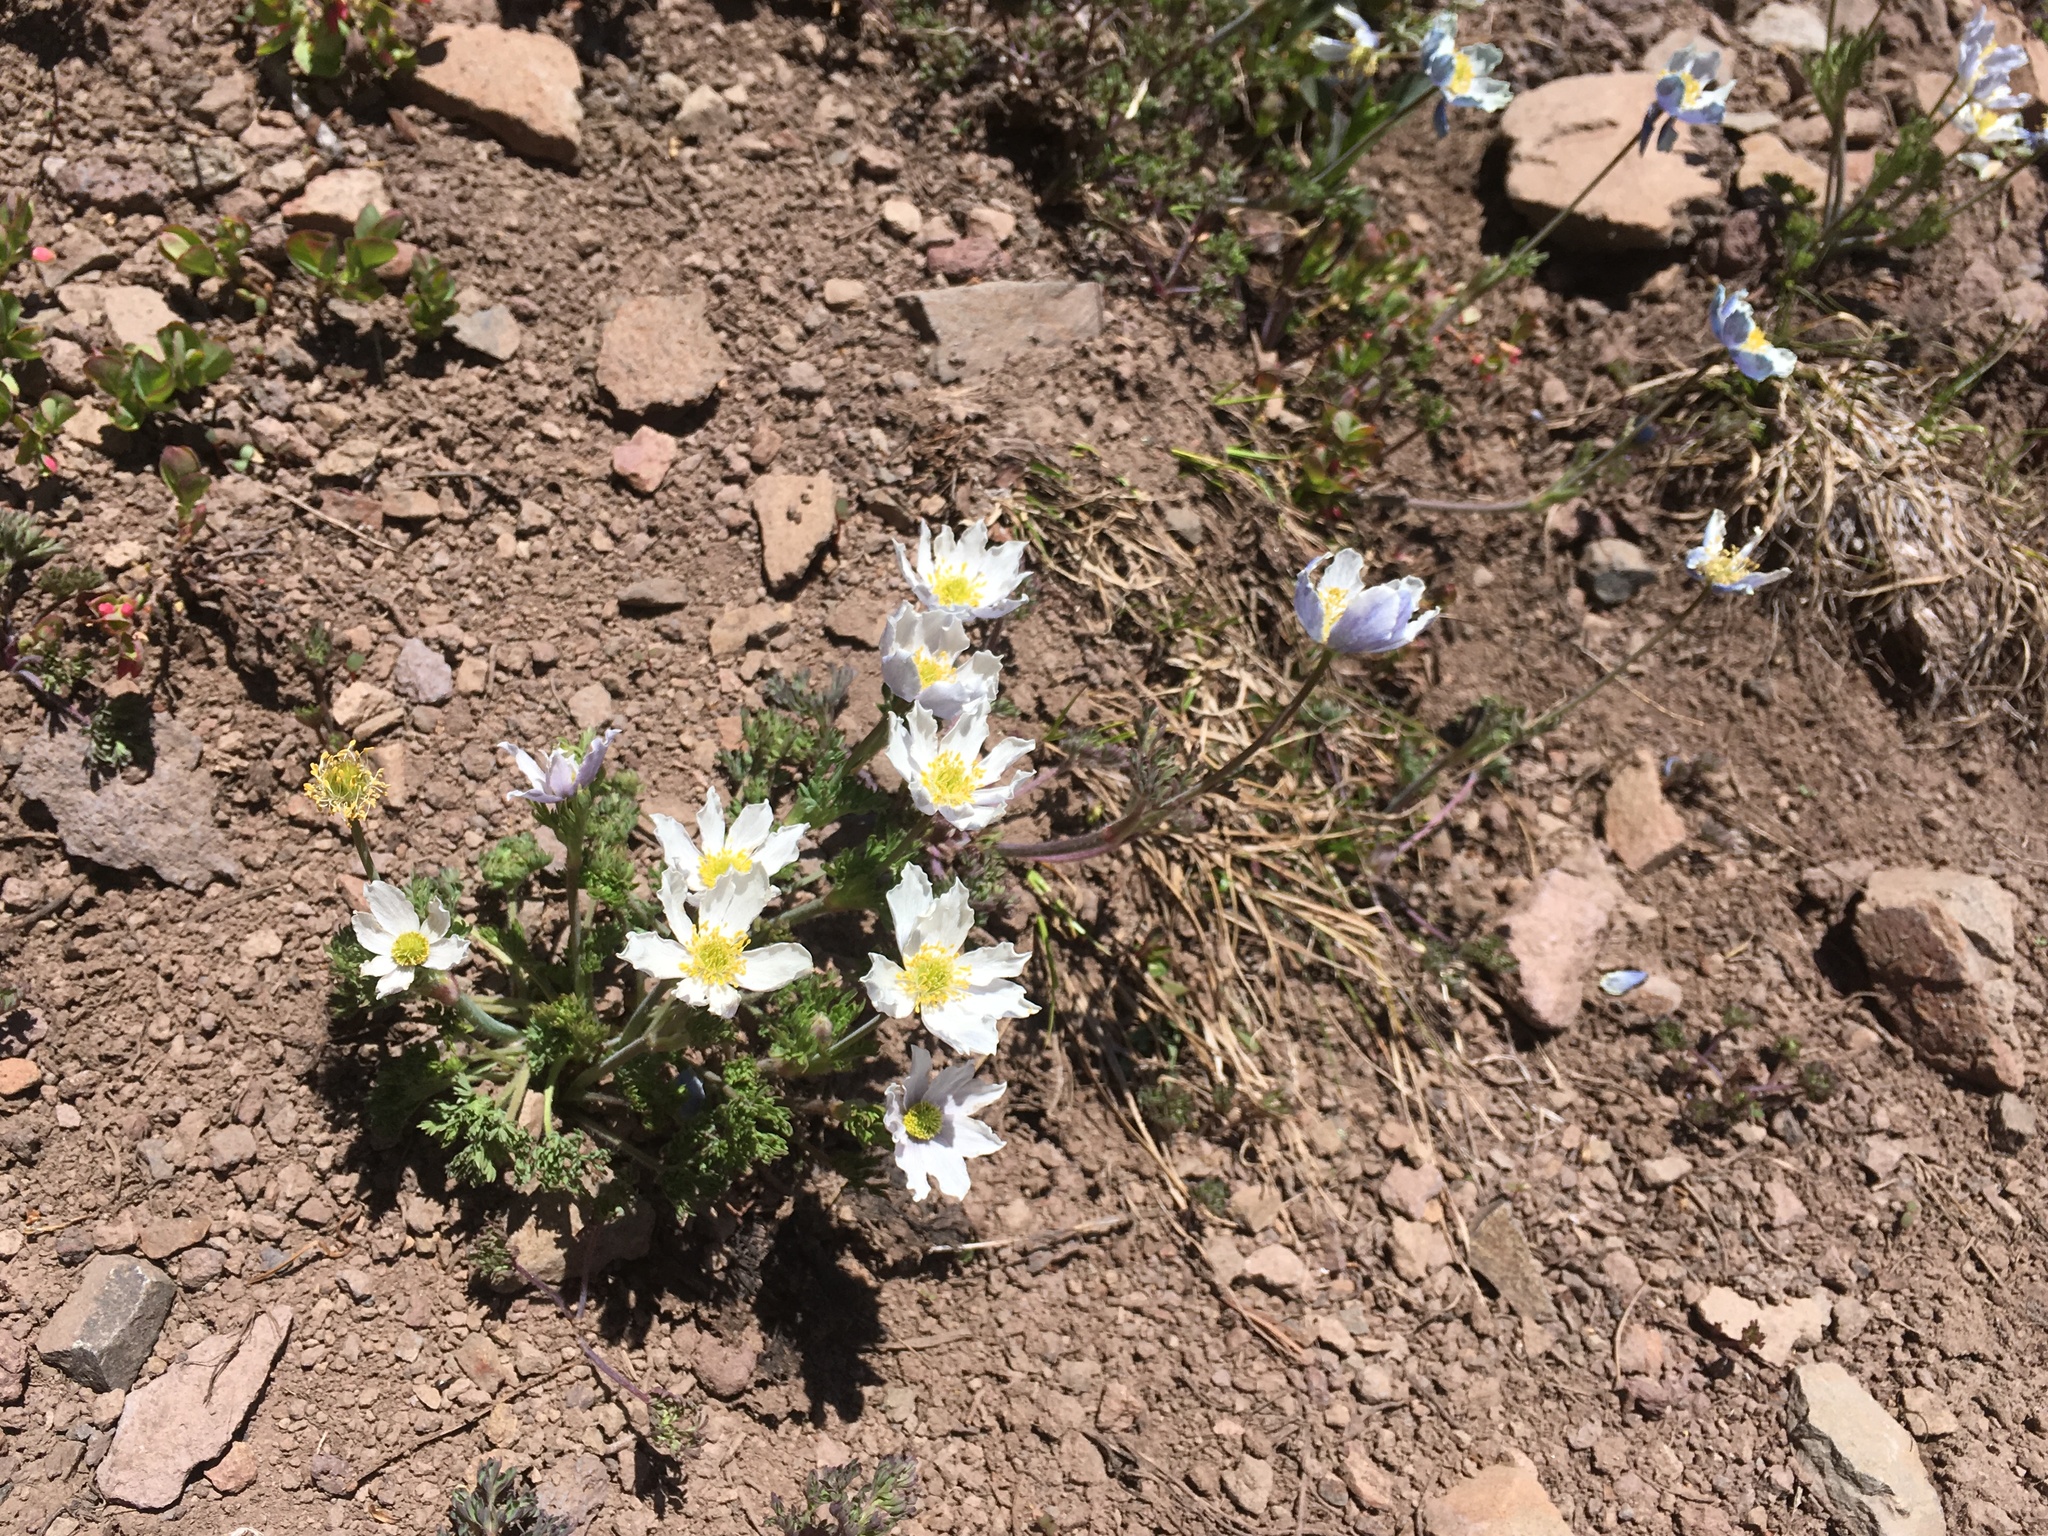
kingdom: Plantae
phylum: Tracheophyta
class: Magnoliopsida
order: Ranunculales
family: Ranunculaceae
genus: Anemone
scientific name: Anemone drummondii
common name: Drummond's anemone
